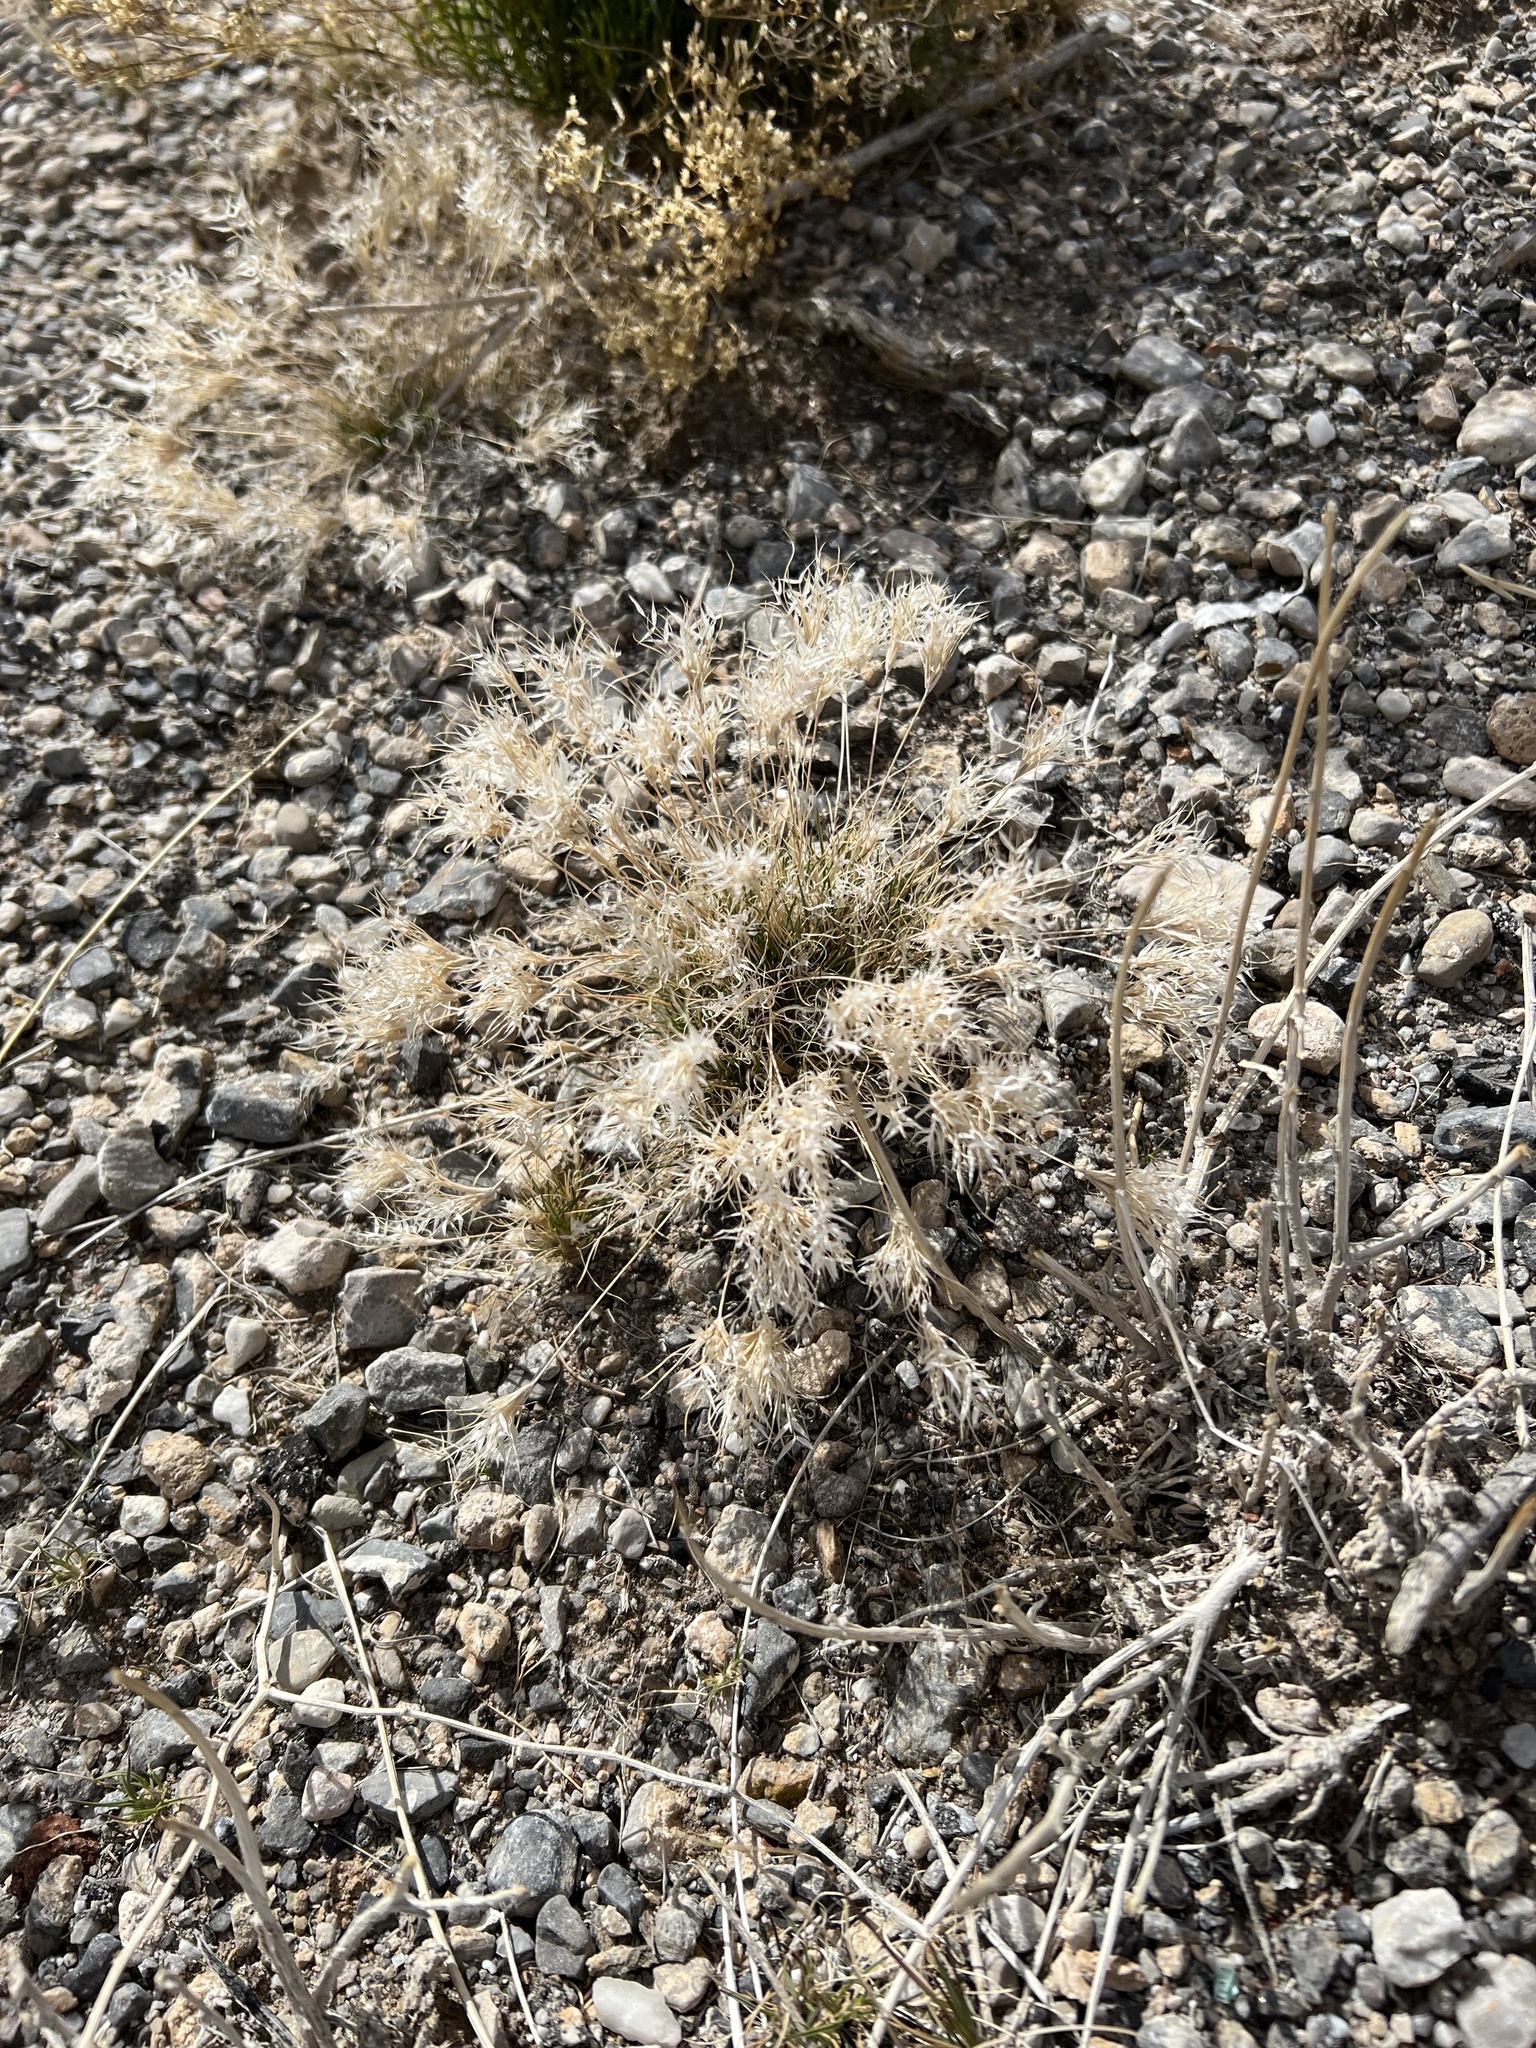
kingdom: Plantae
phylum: Tracheophyta
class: Liliopsida
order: Poales
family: Poaceae
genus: Dasyochloa
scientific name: Dasyochloa pulchella
